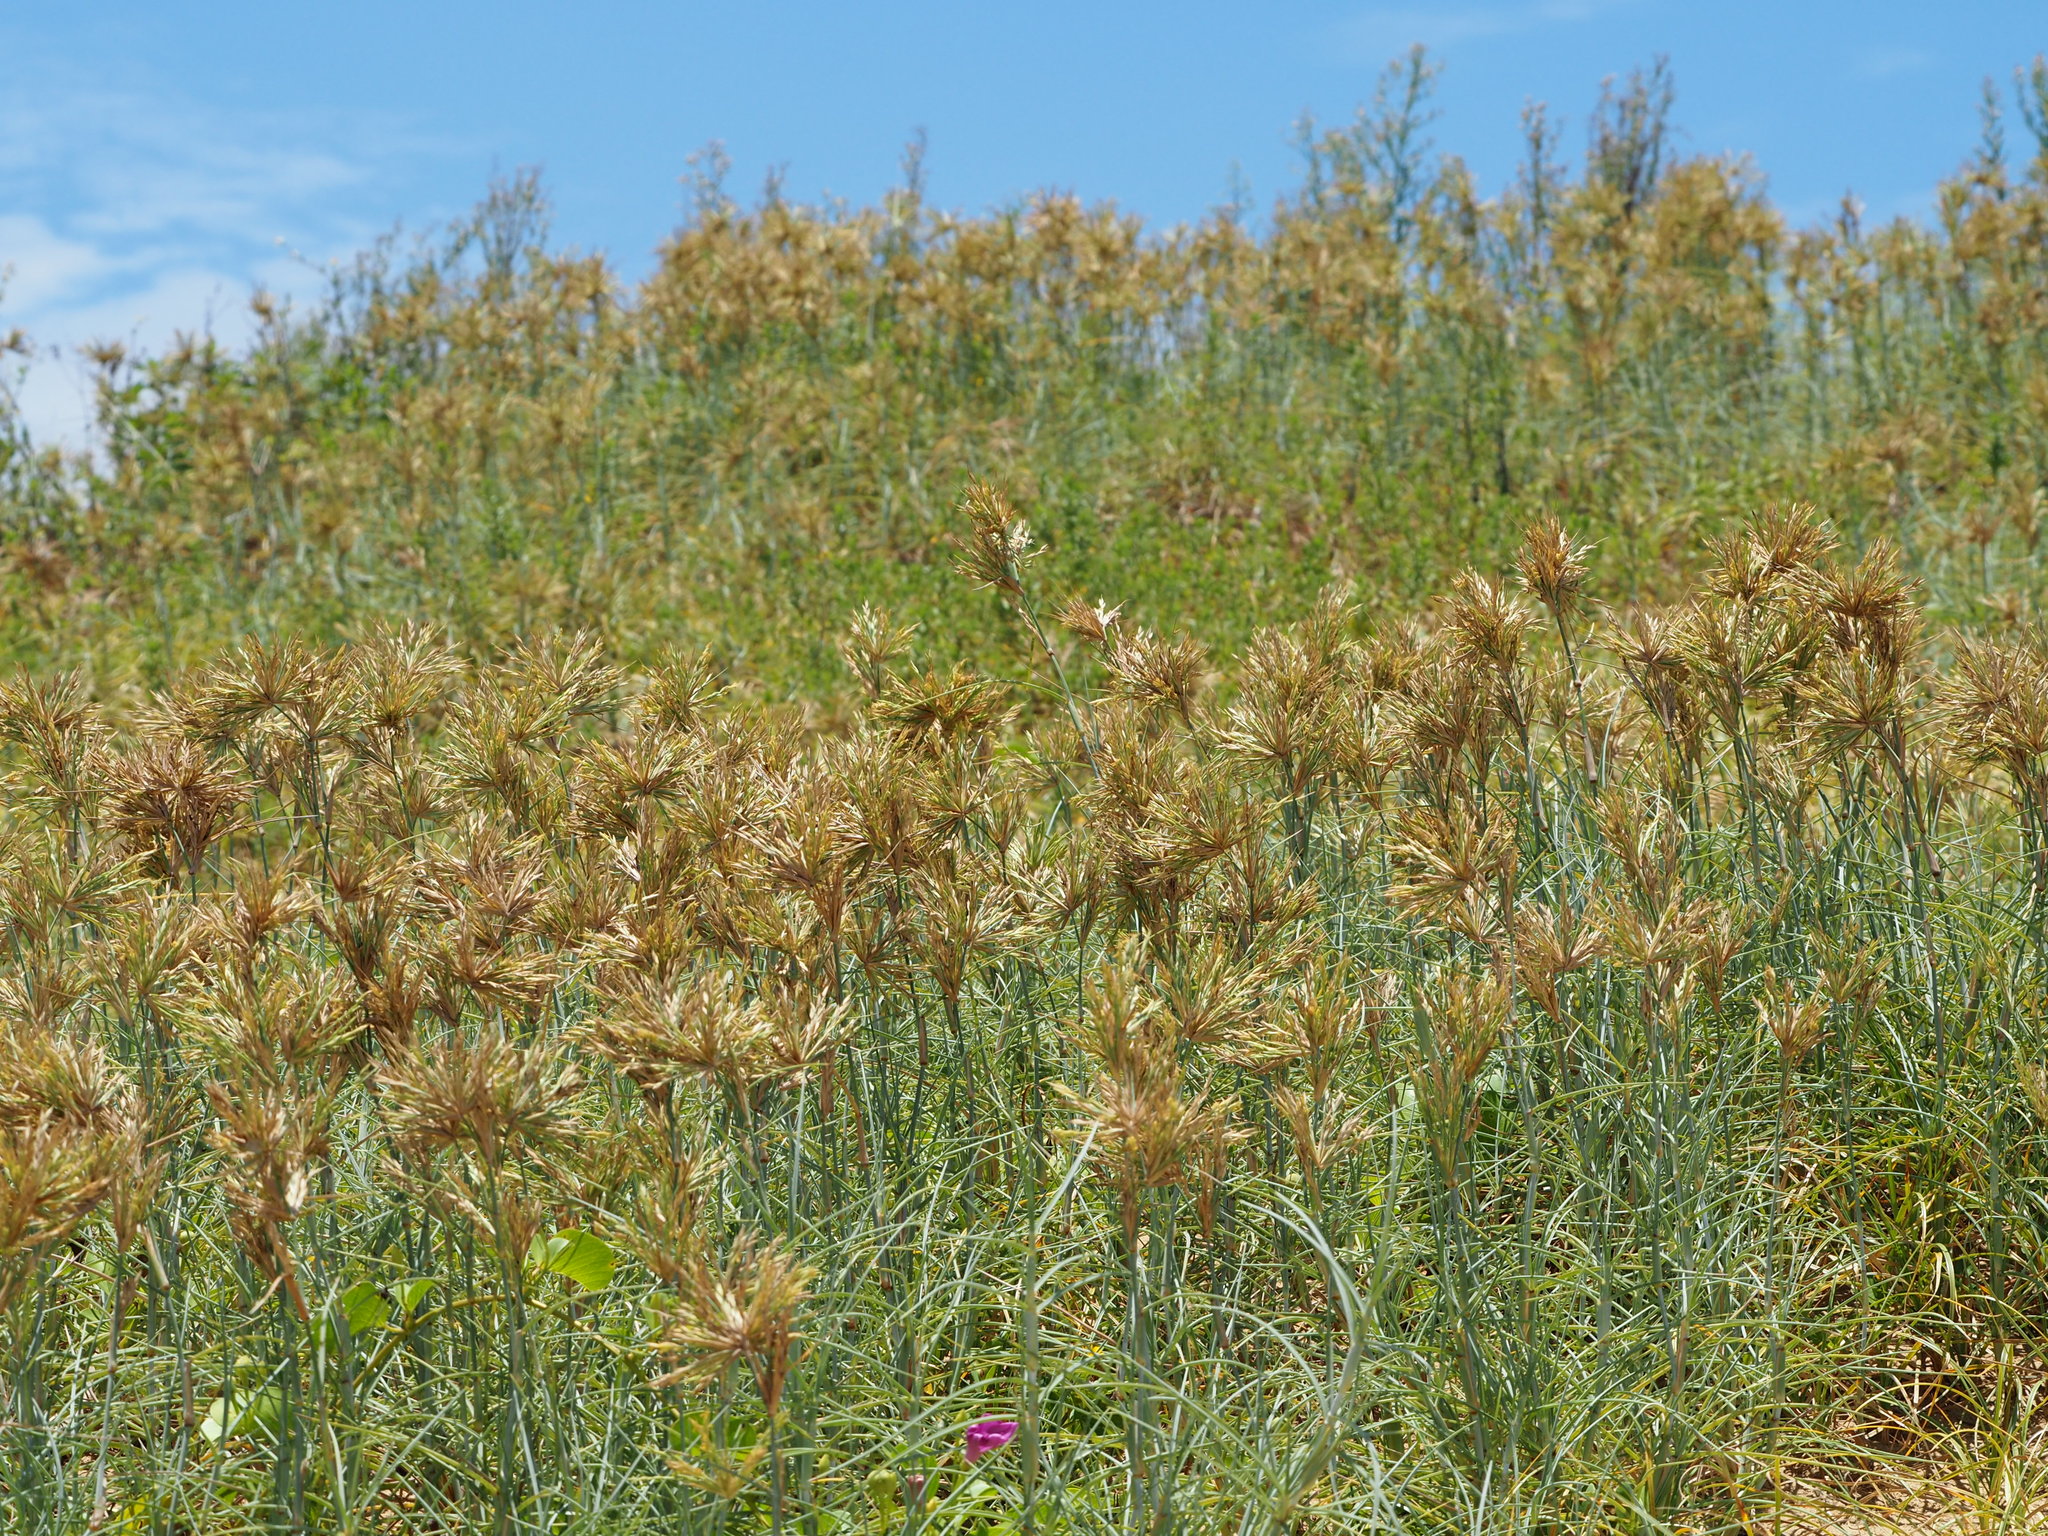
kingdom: Plantae
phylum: Tracheophyta
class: Liliopsida
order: Poales
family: Poaceae
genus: Spinifex
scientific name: Spinifex littoreus
